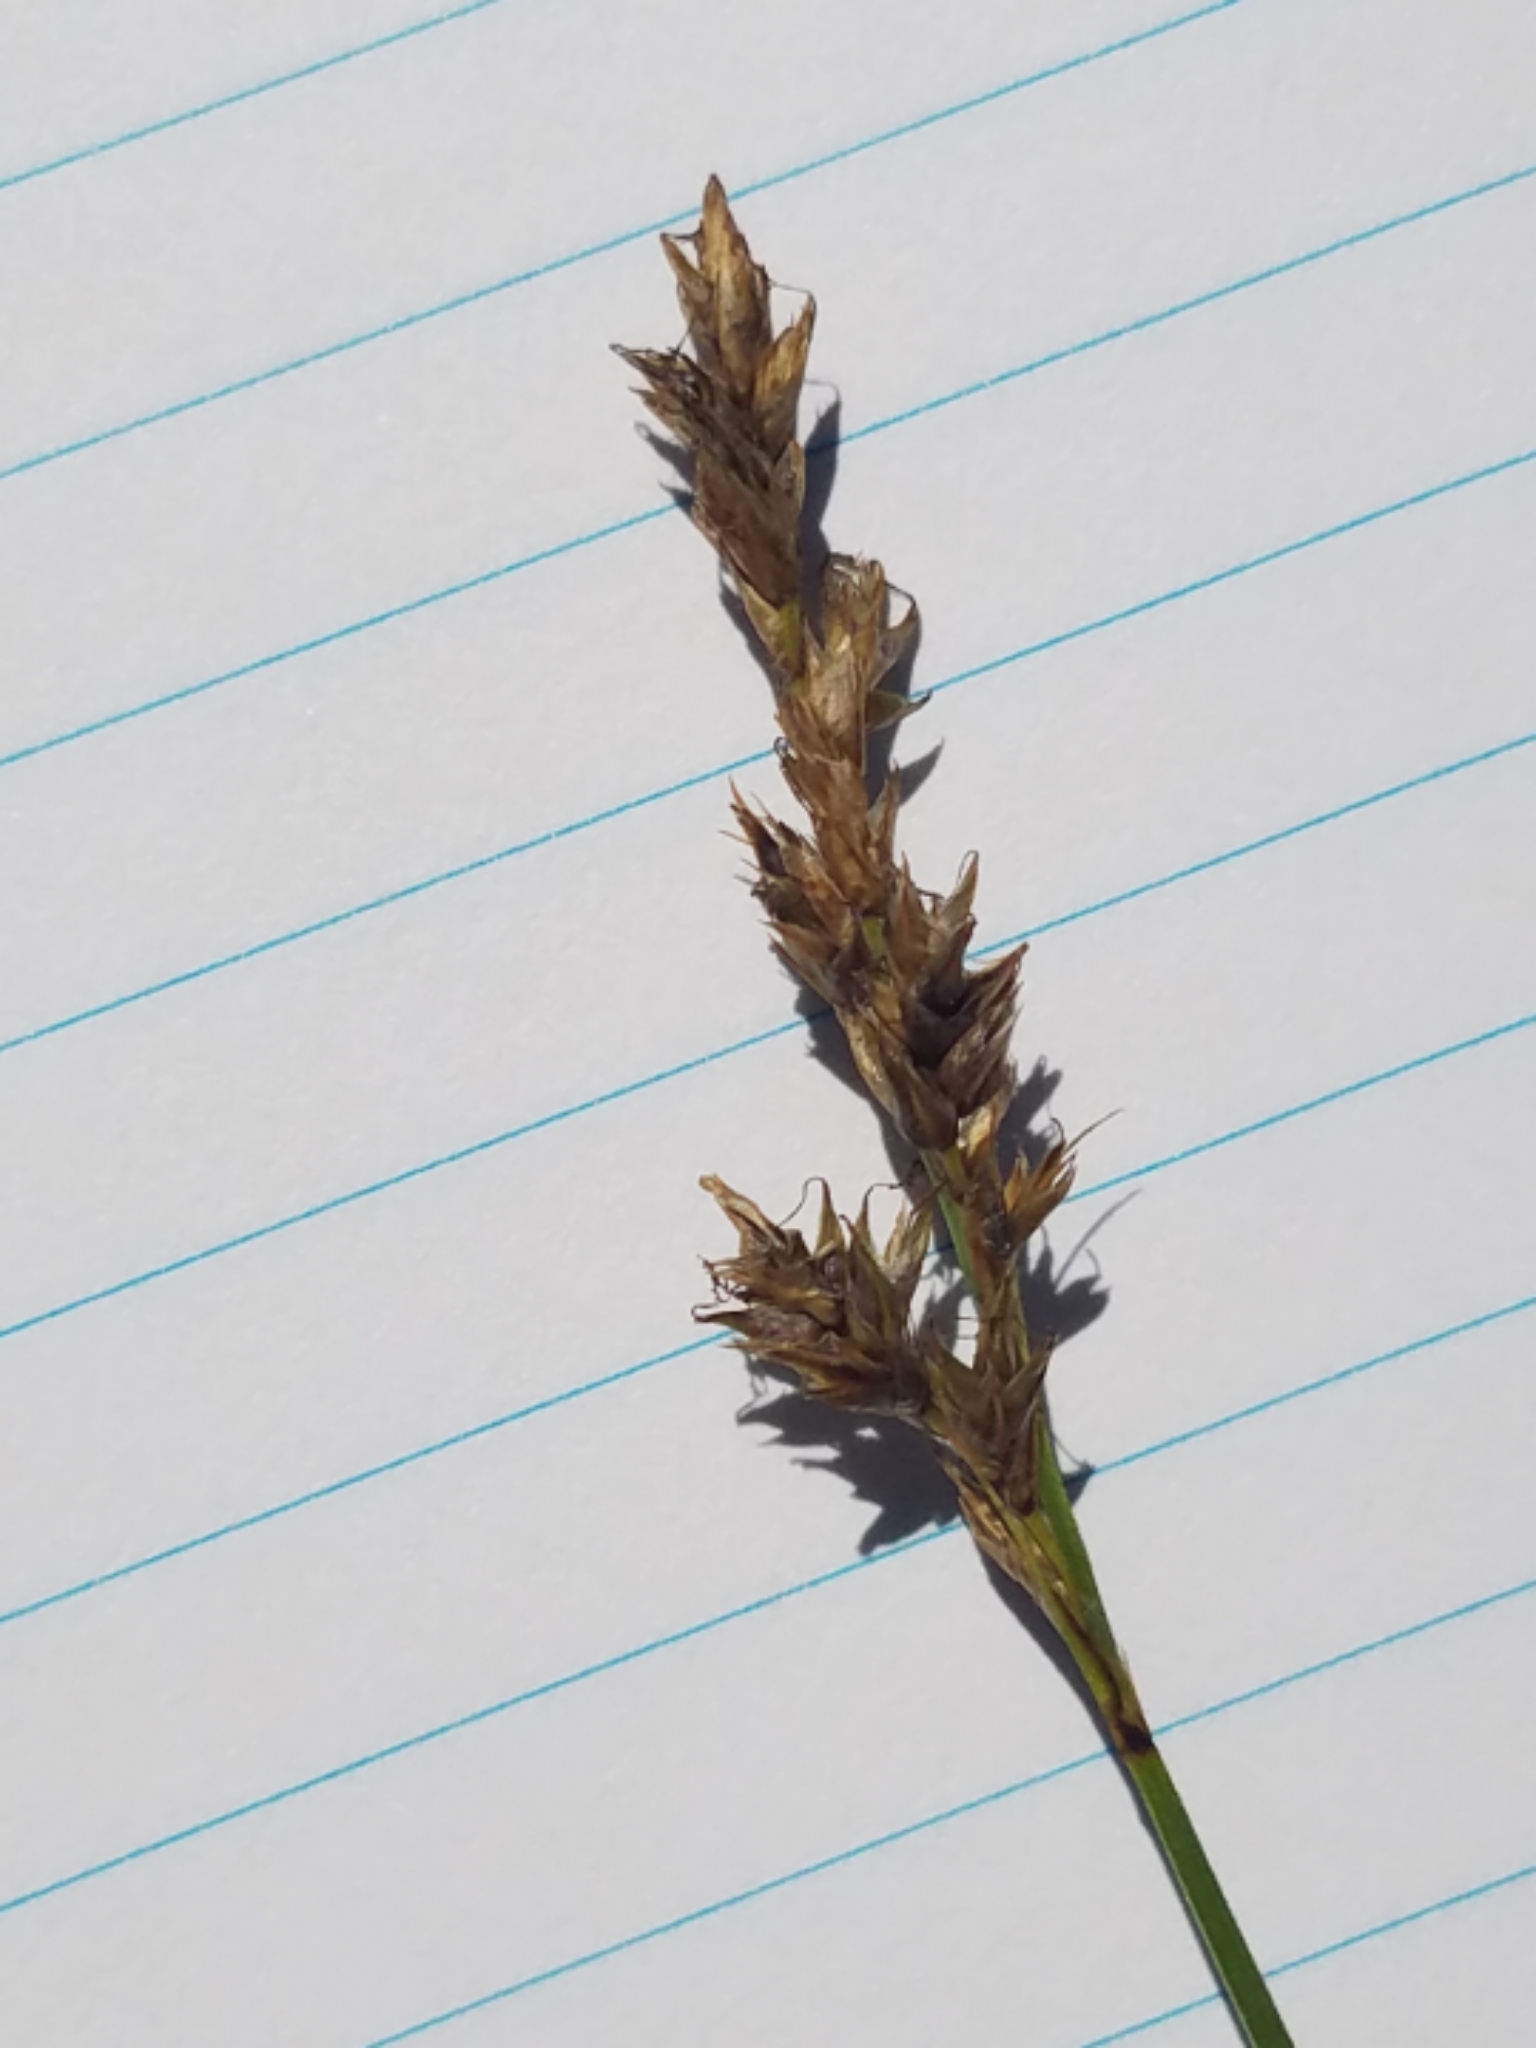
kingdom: Plantae
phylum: Tracheophyta
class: Liliopsida
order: Poales
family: Cyperaceae
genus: Carex
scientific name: Carex prairea
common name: Prairie sedge
